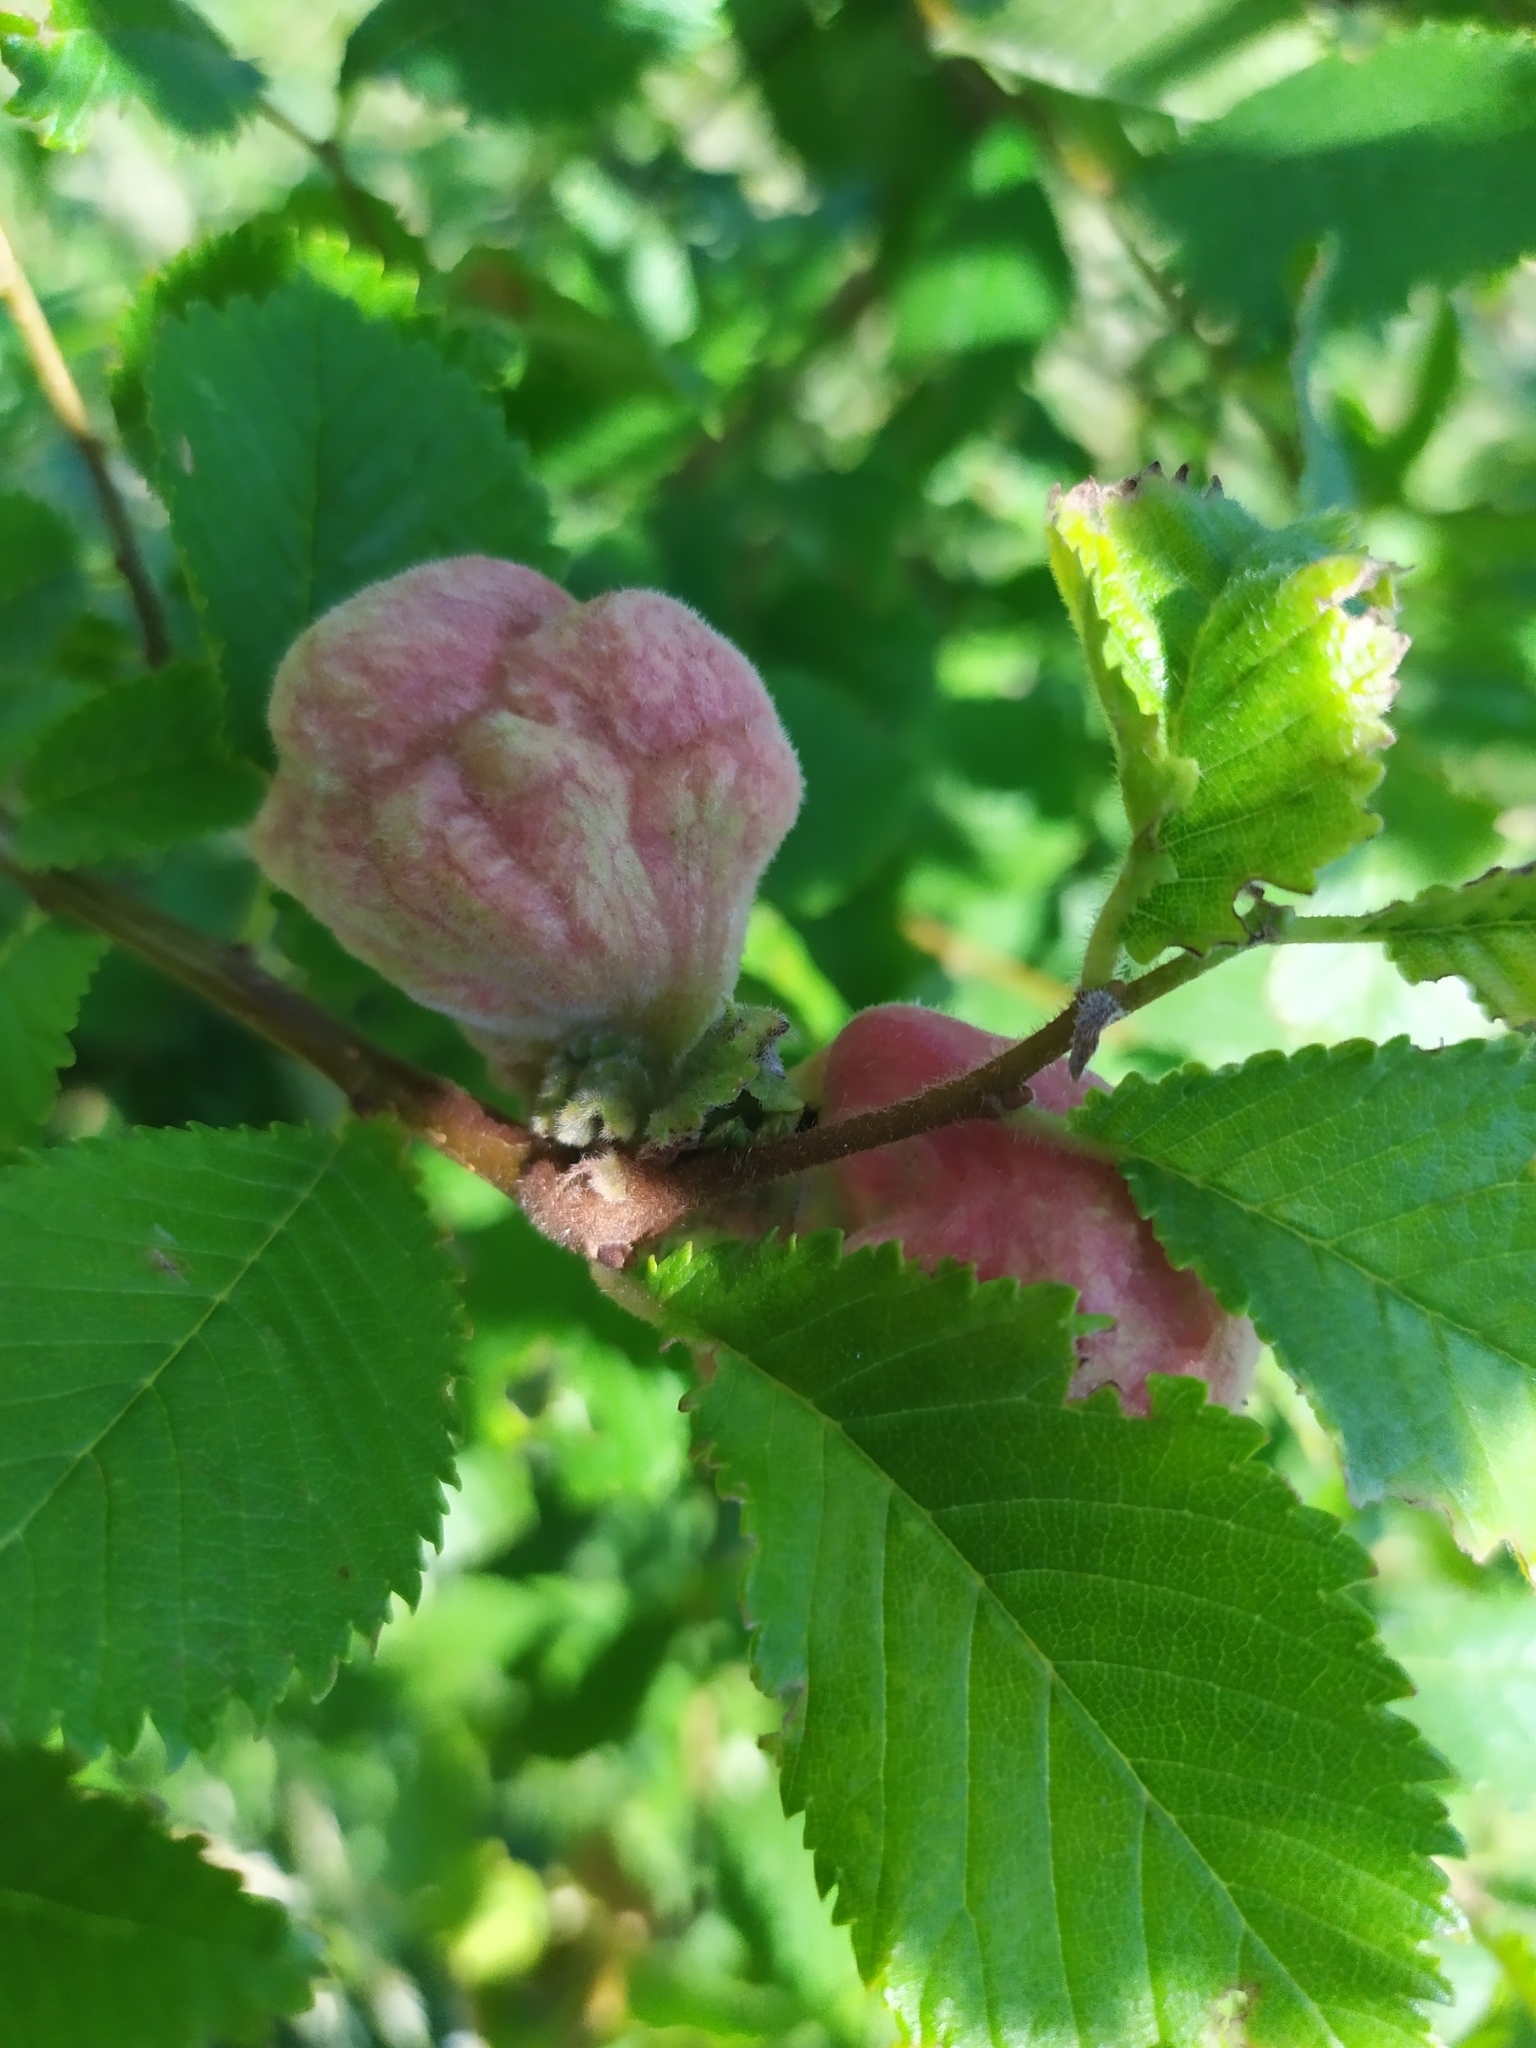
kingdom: Animalia
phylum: Arthropoda
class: Insecta
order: Hemiptera
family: Aphididae
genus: Eriosoma
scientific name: Eriosoma lanuginosum
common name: Aphid
